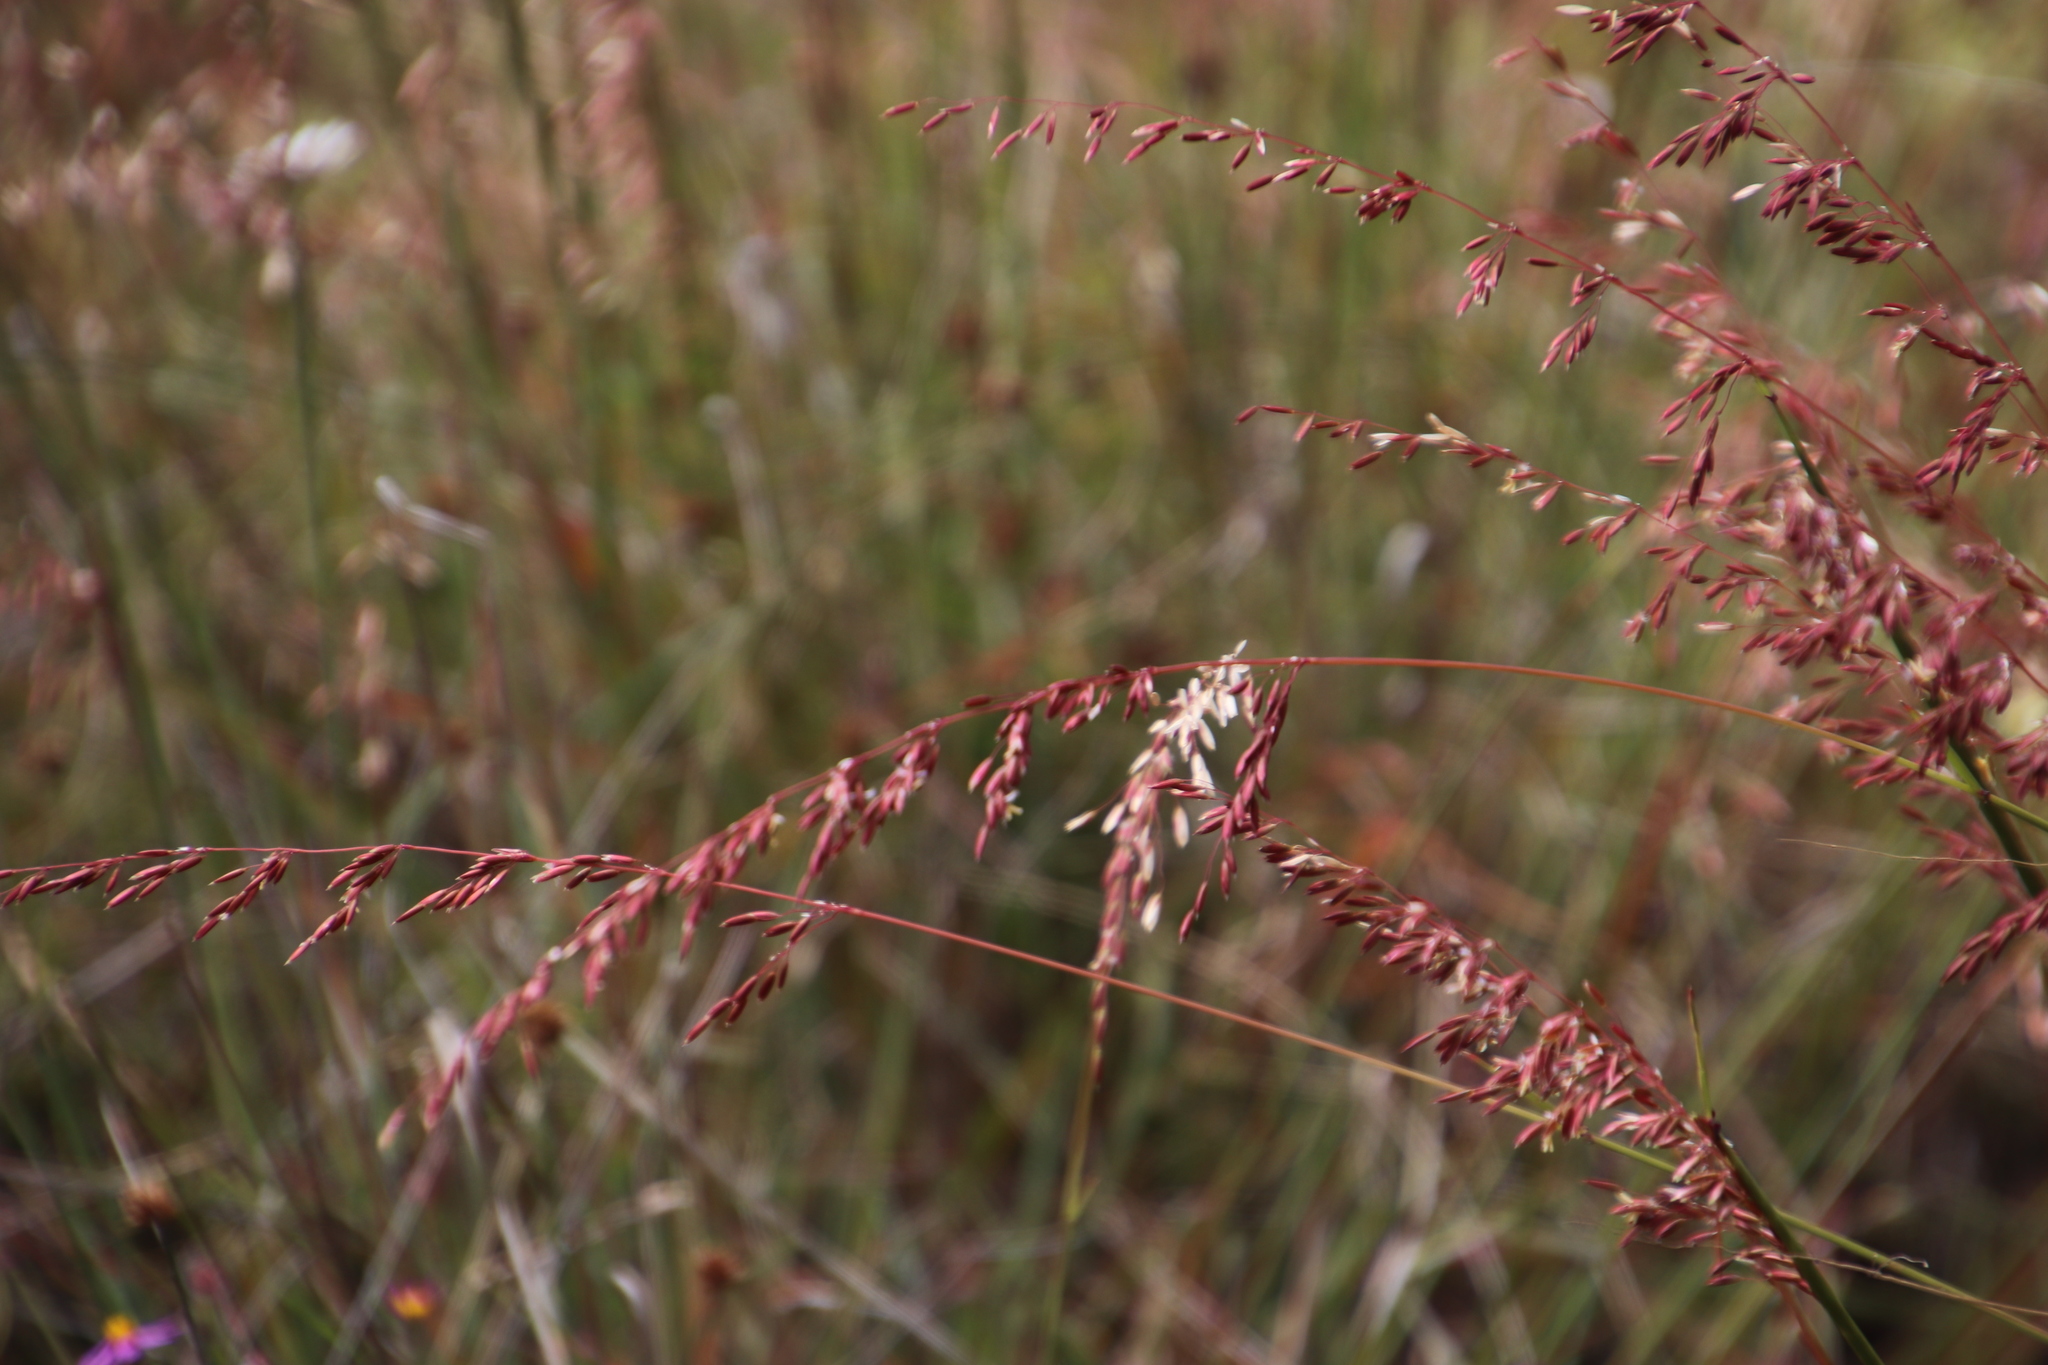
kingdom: Plantae
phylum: Tracheophyta
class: Liliopsida
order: Poales
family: Poaceae
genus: Ehrharta
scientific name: Ehrharta calycina
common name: Perennial veldtgrass
